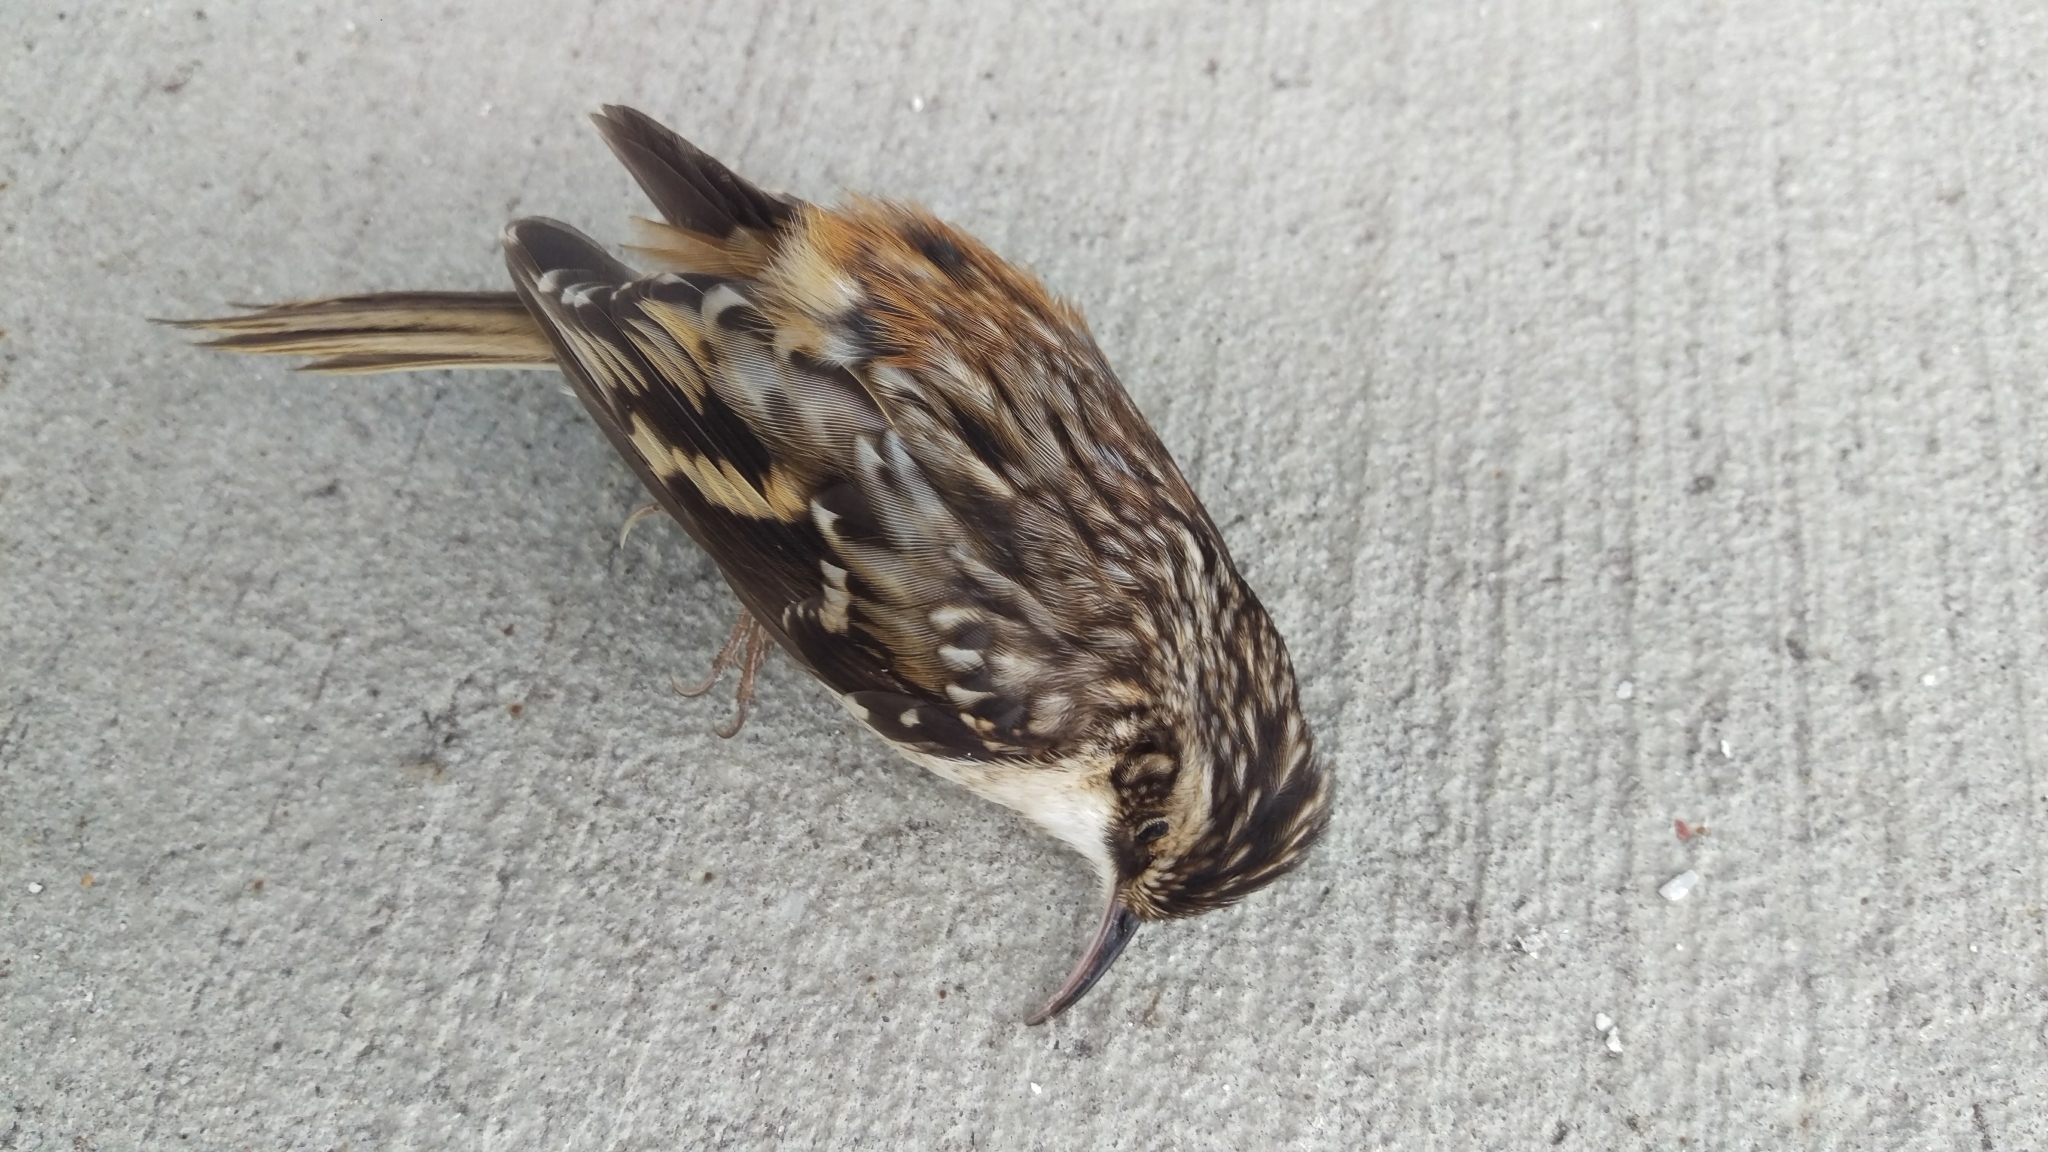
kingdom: Animalia
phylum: Chordata
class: Aves
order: Passeriformes
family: Certhiidae
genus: Certhia
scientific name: Certhia americana
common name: Brown creeper
